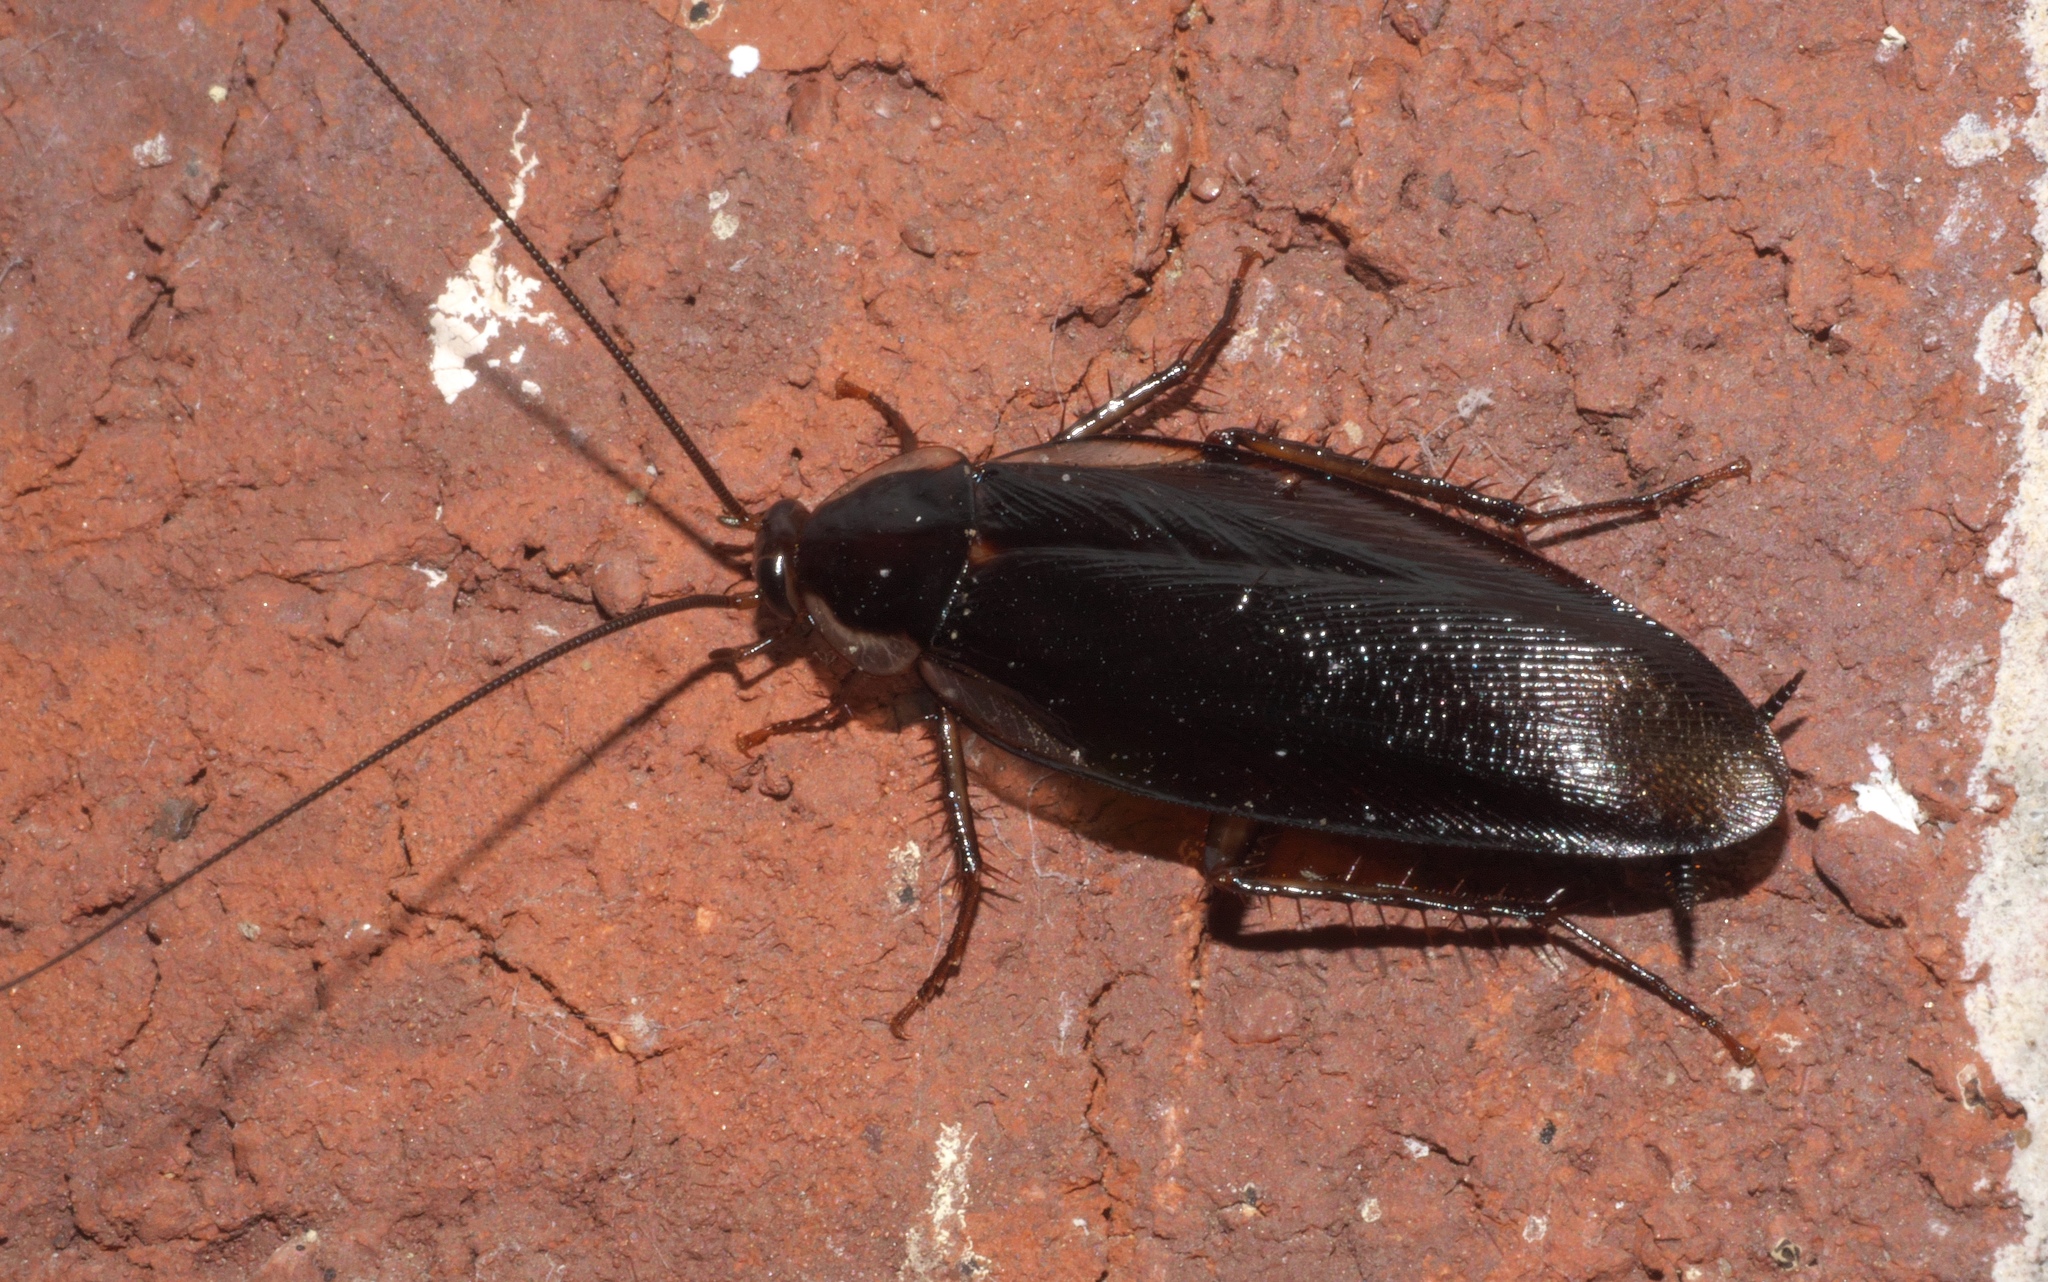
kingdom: Animalia
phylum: Arthropoda
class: Insecta
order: Blattodea
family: Ectobiidae
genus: Parcoblatta
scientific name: Parcoblatta pennsylvanica
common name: Pennsylvanian wood cockroach
